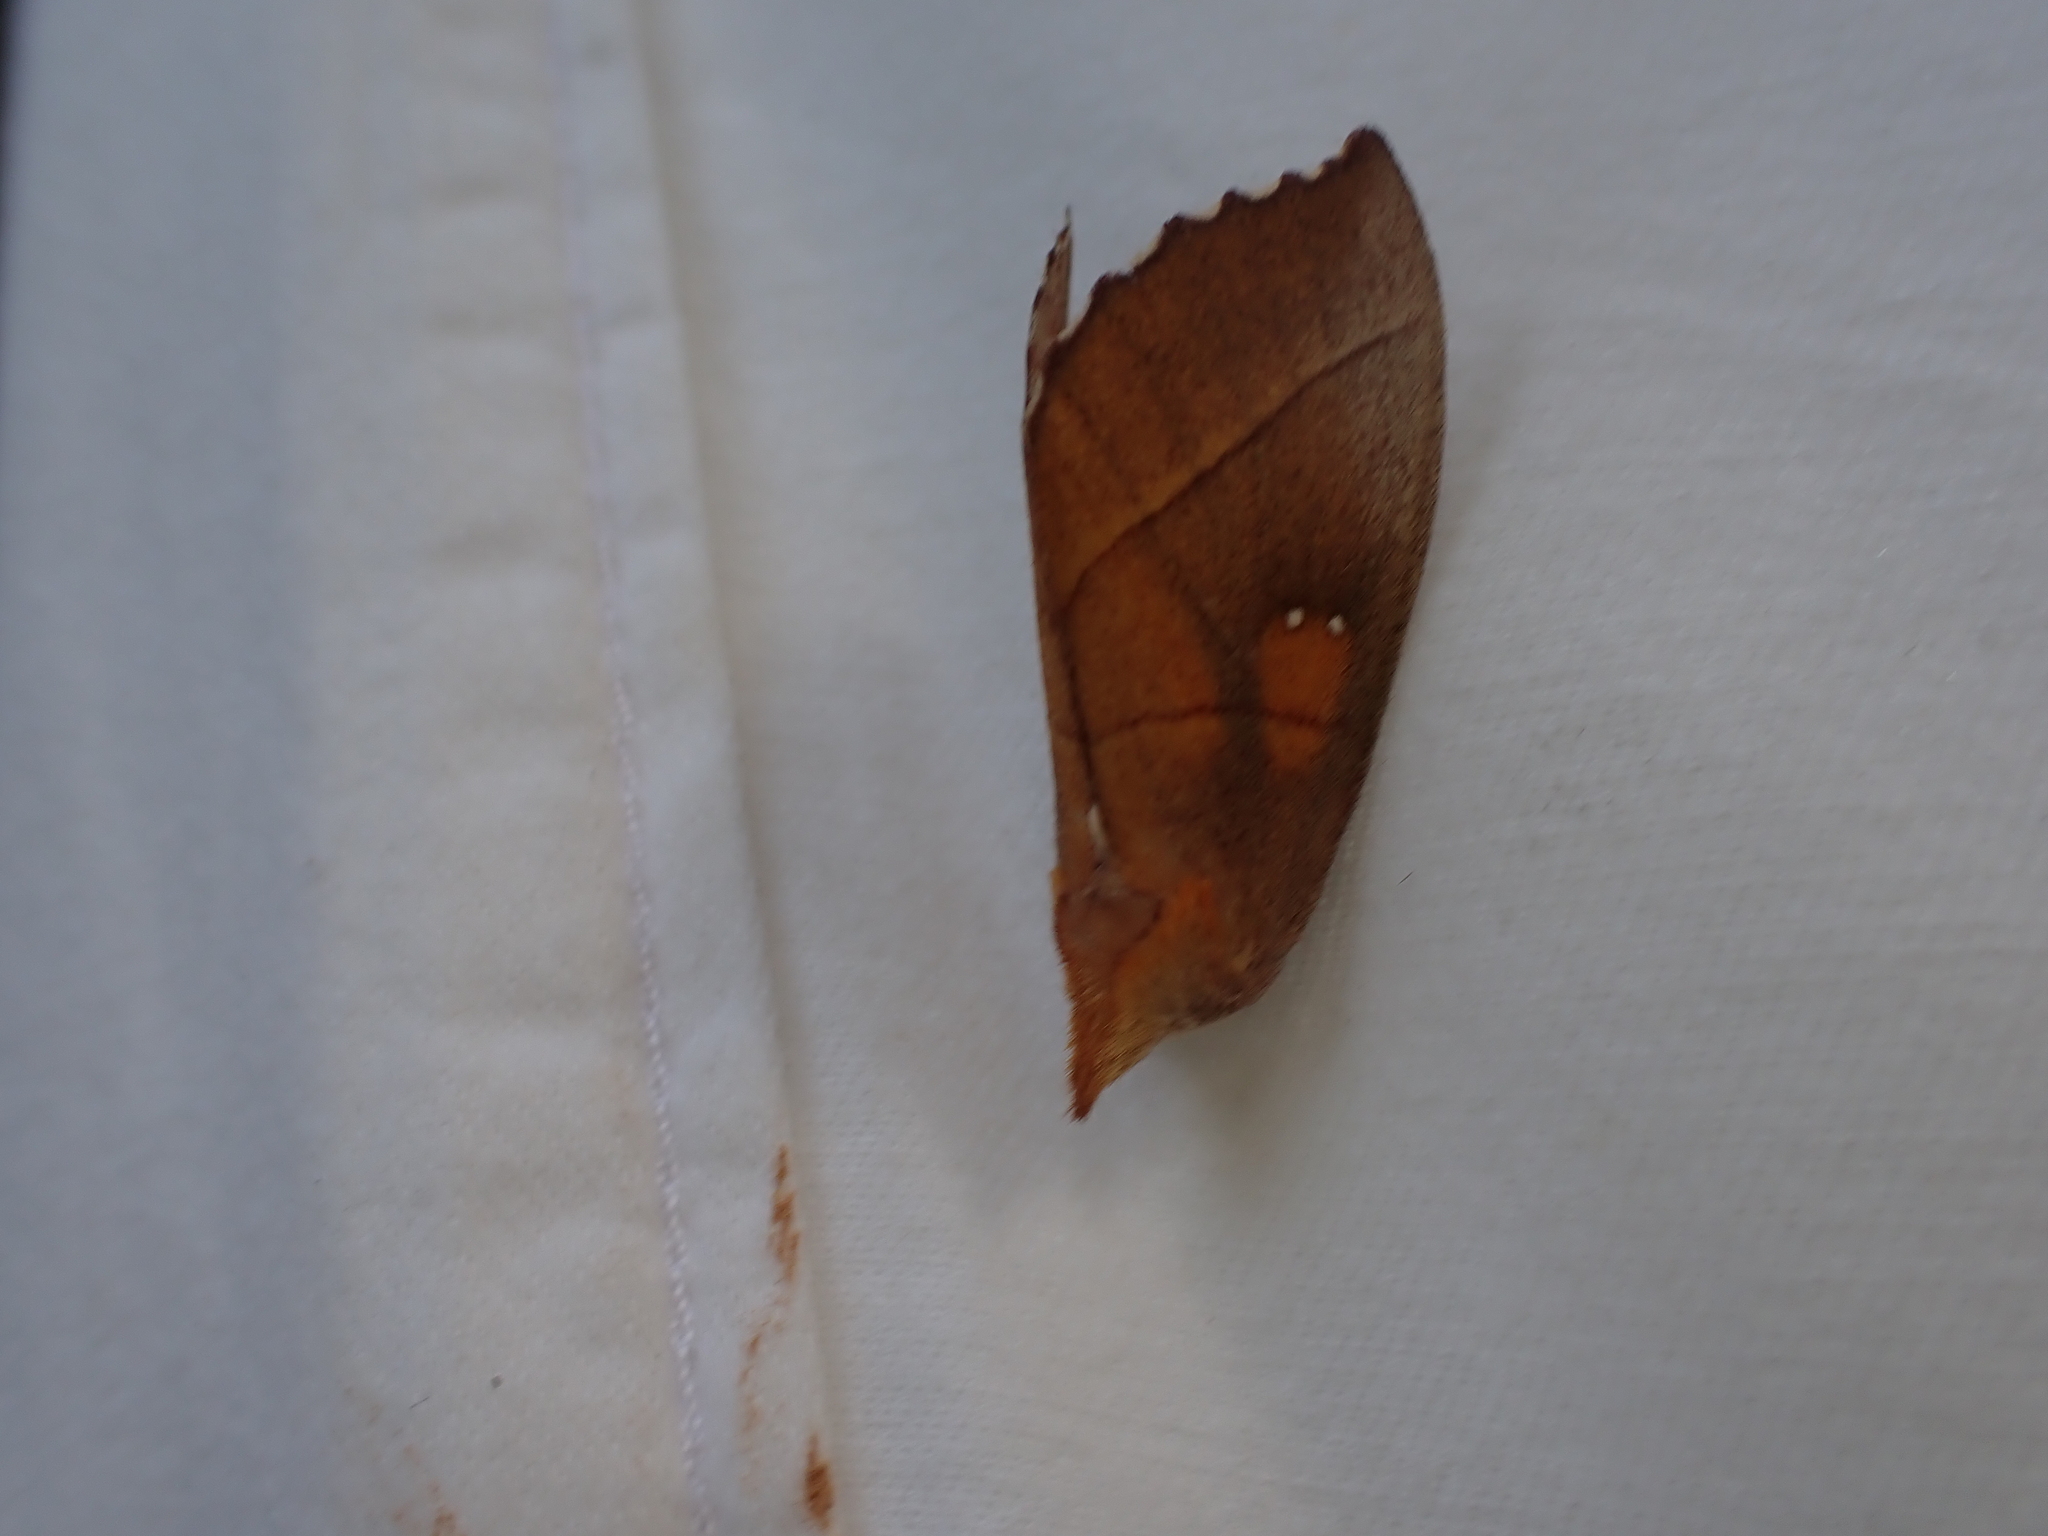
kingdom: Animalia
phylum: Arthropoda
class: Insecta
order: Lepidoptera
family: Notodontidae
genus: Nadata
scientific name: Nadata gibbosa
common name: White-dotted prominent
